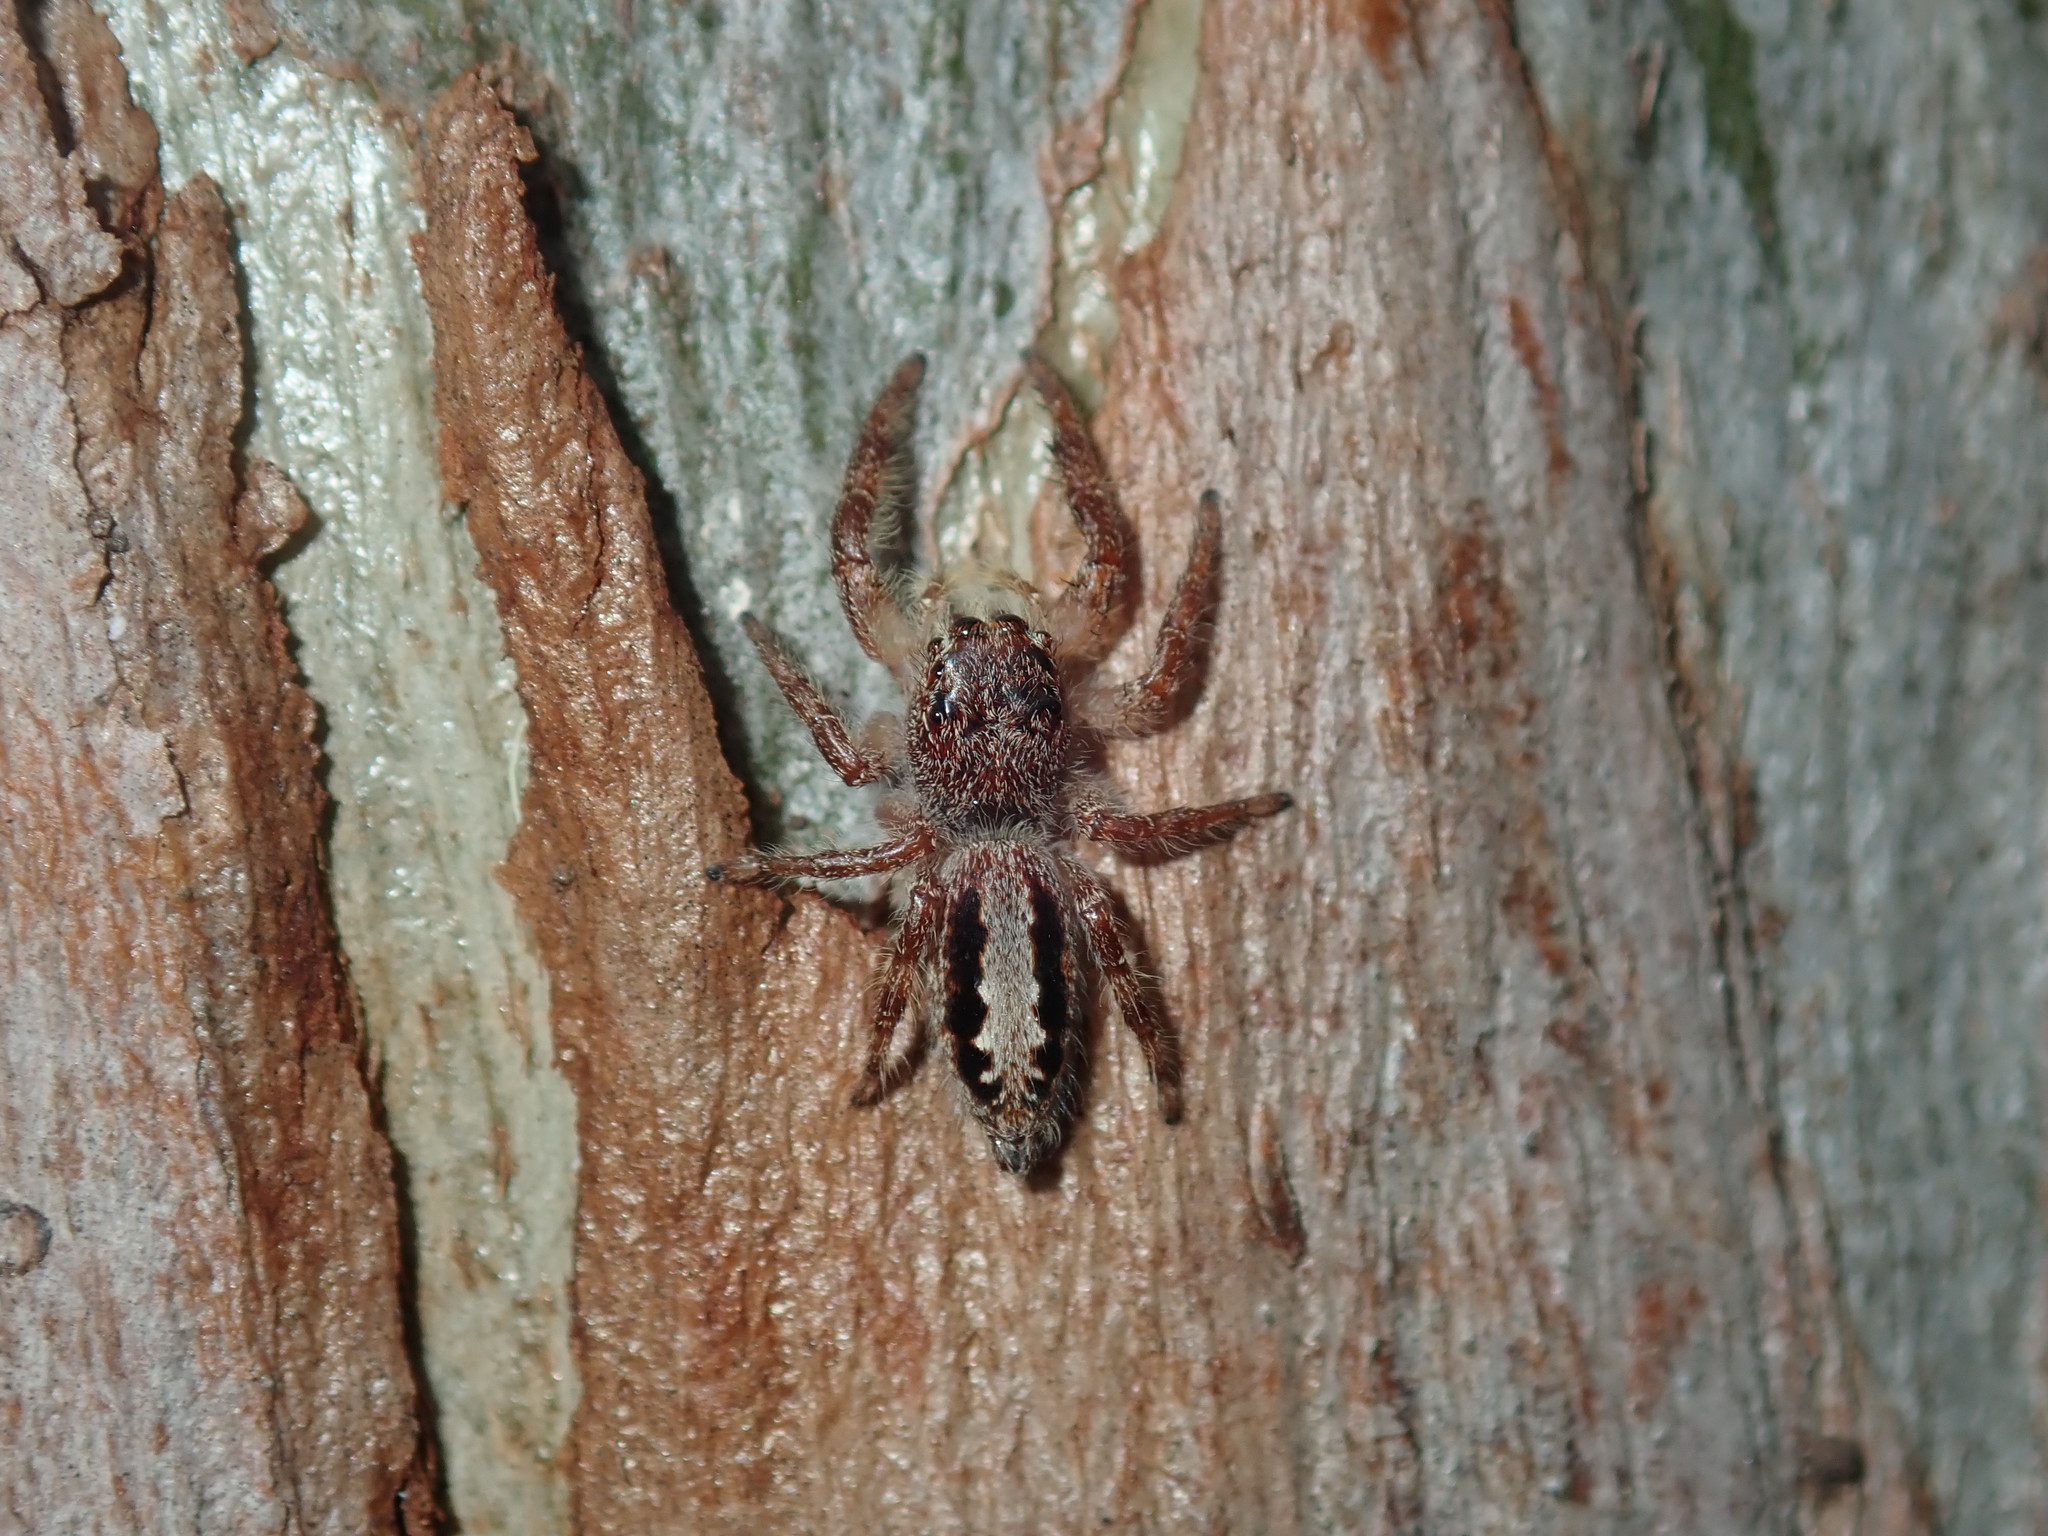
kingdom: Animalia
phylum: Arthropoda
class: Arachnida
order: Araneae
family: Salticidae
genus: Sandalodes
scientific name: Sandalodes superbus
